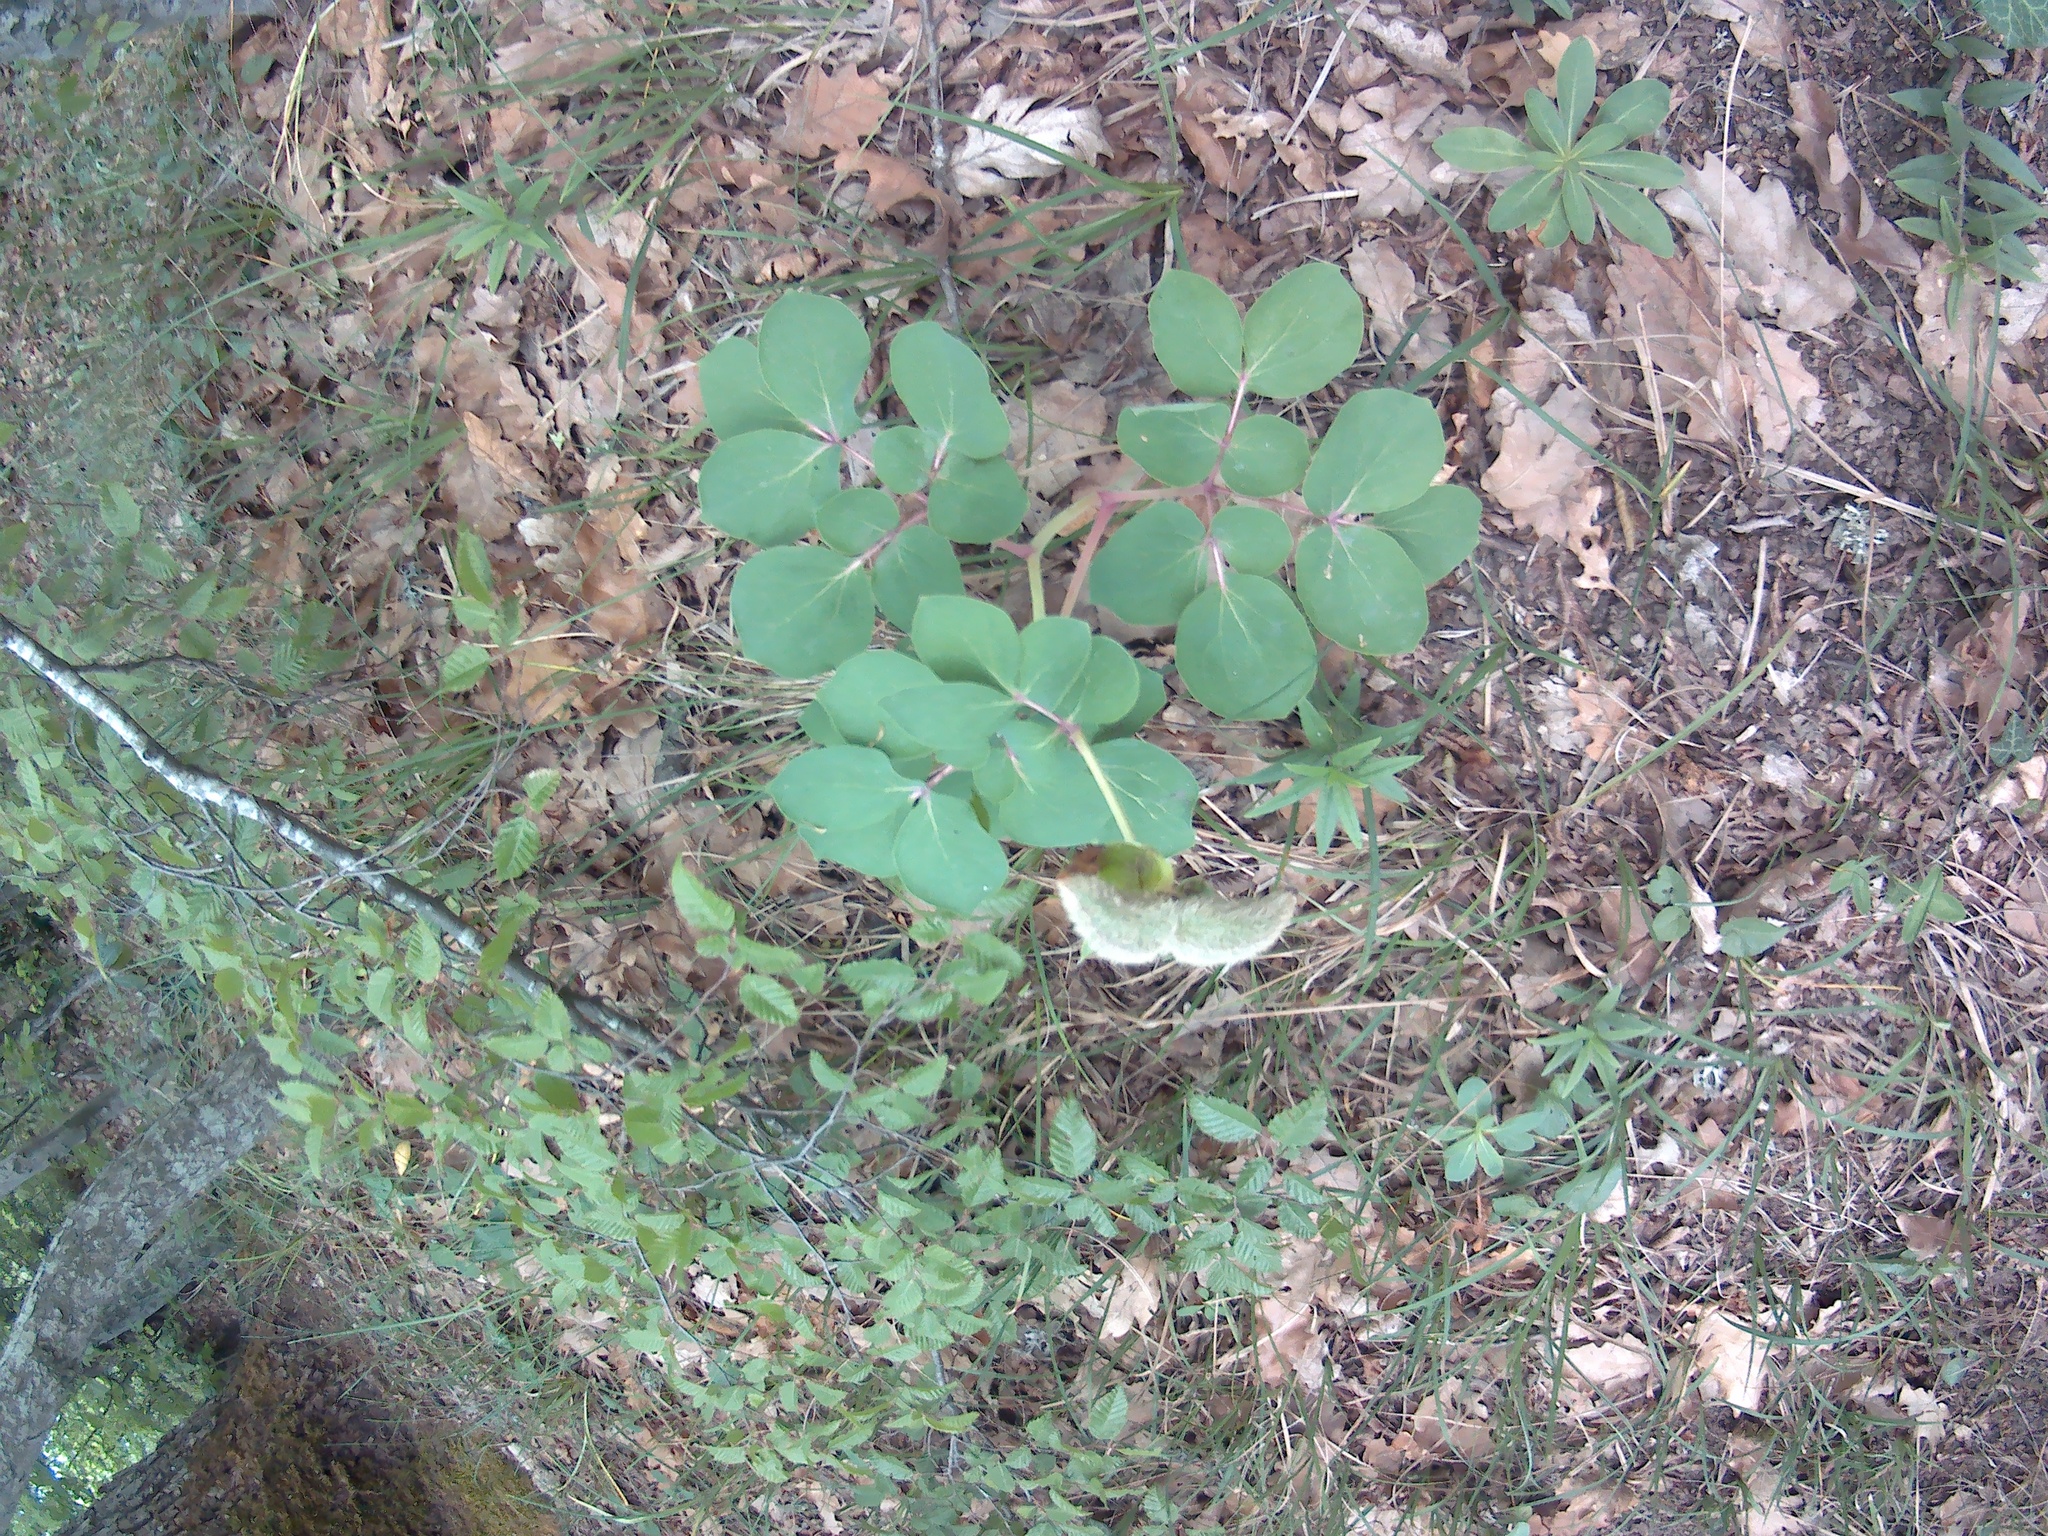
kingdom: Plantae
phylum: Tracheophyta
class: Magnoliopsida
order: Saxifragales
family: Paeoniaceae
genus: Paeonia
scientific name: Paeonia daurica
